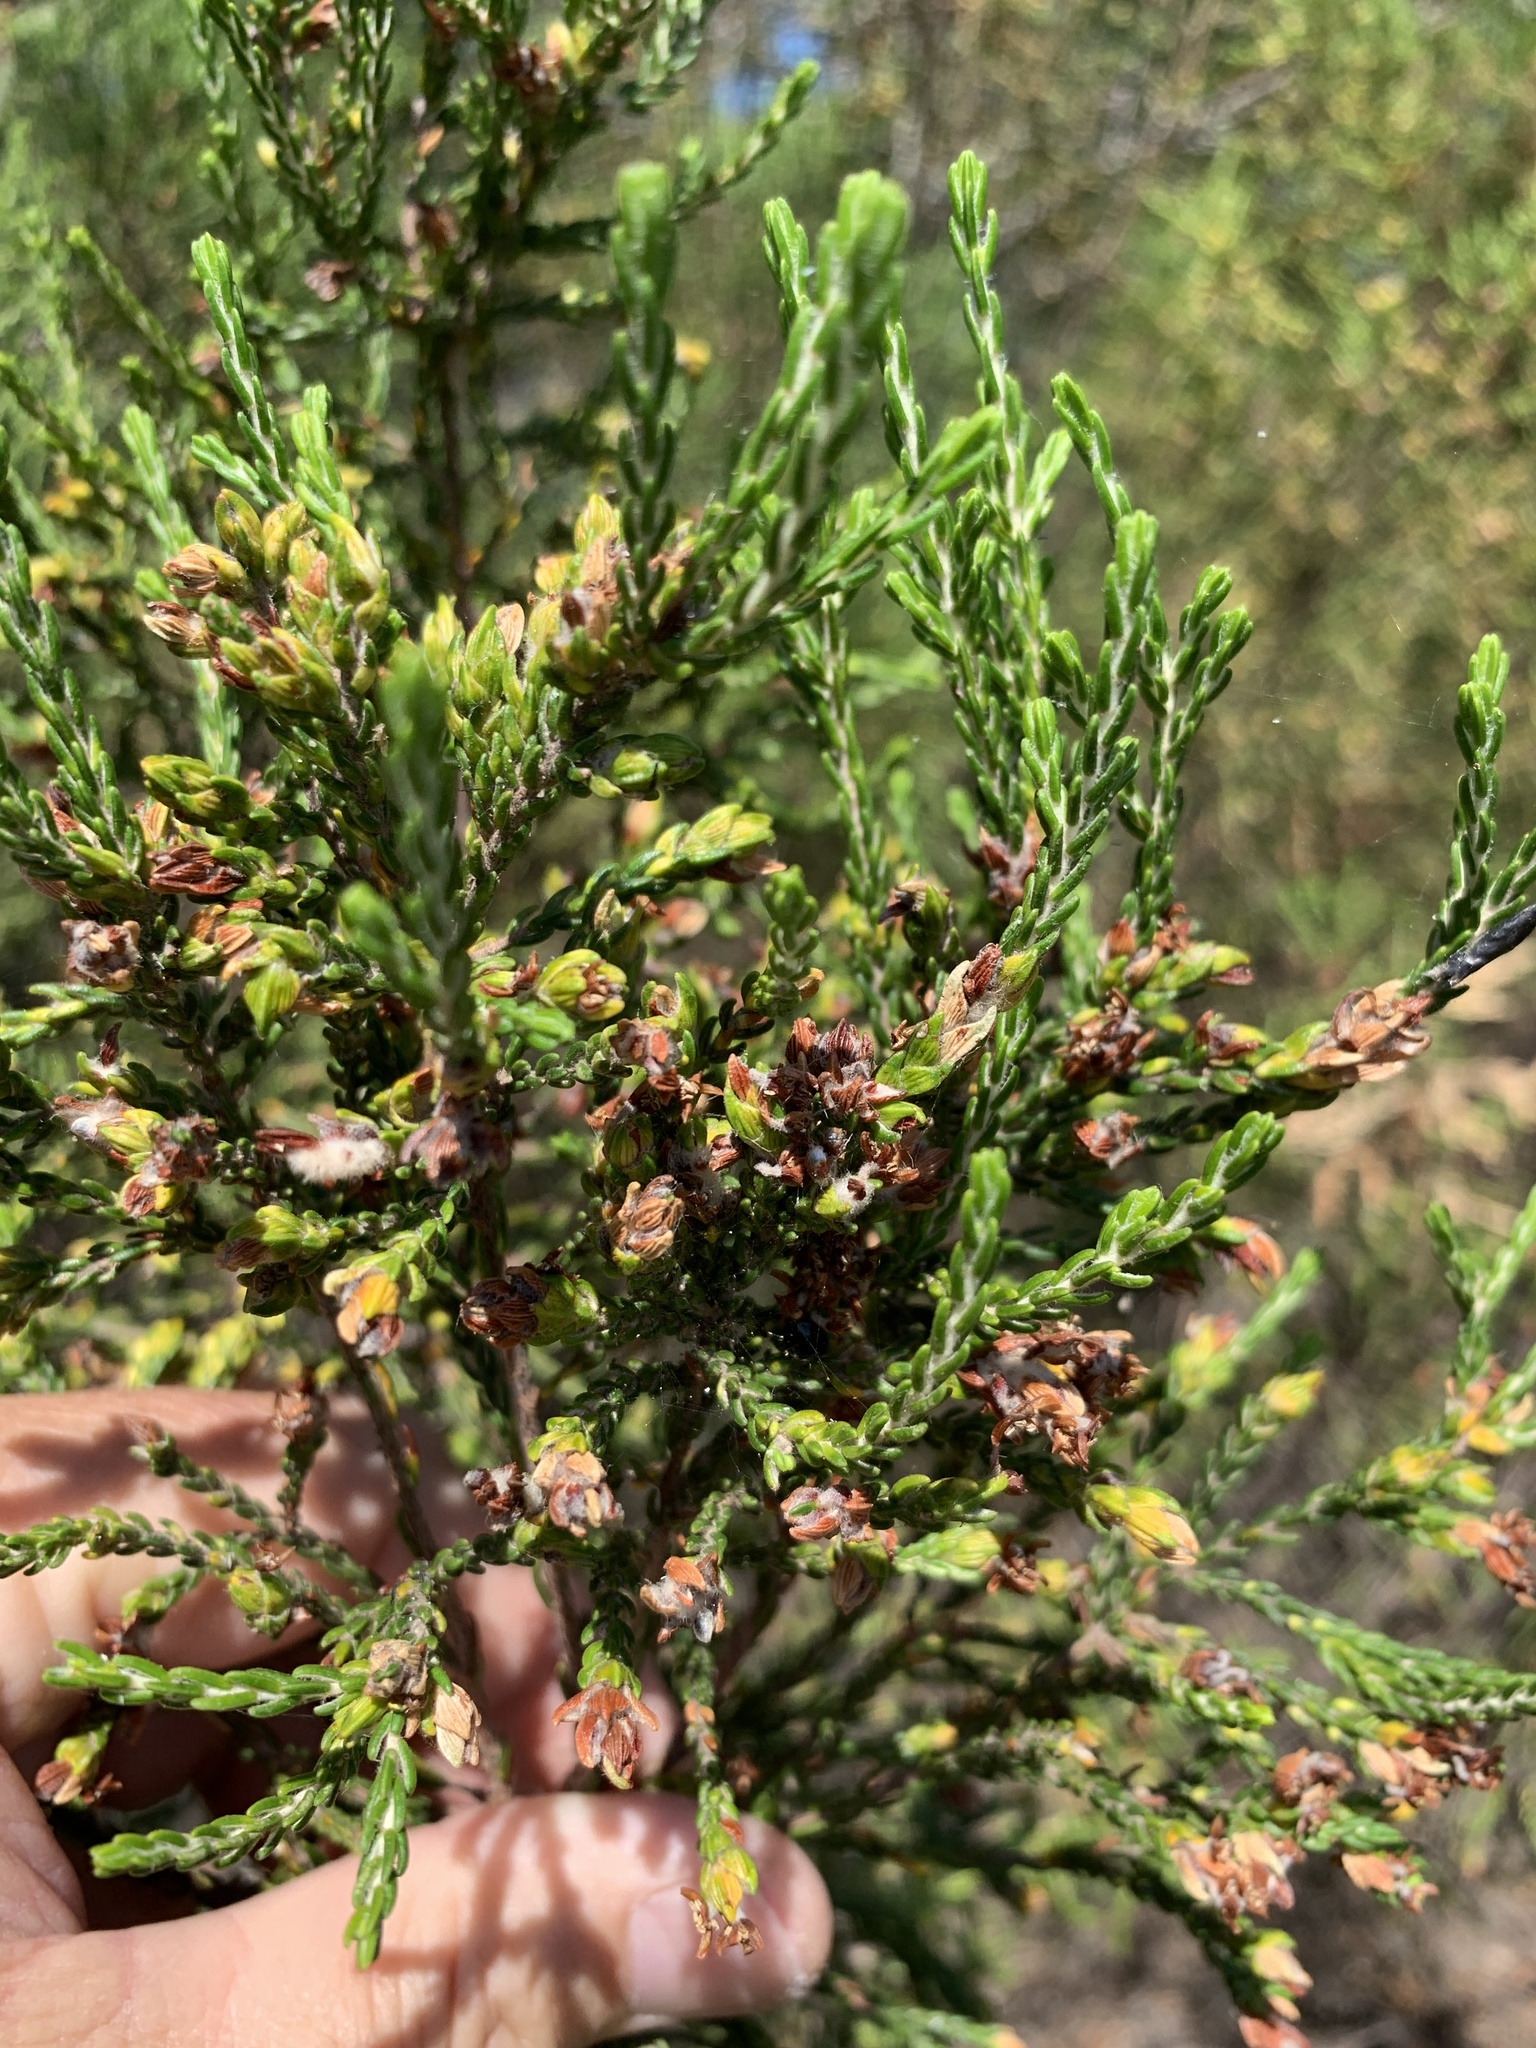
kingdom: Plantae
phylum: Tracheophyta
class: Magnoliopsida
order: Malvales
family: Thymelaeaceae
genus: Passerina
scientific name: Passerina corymbosa
